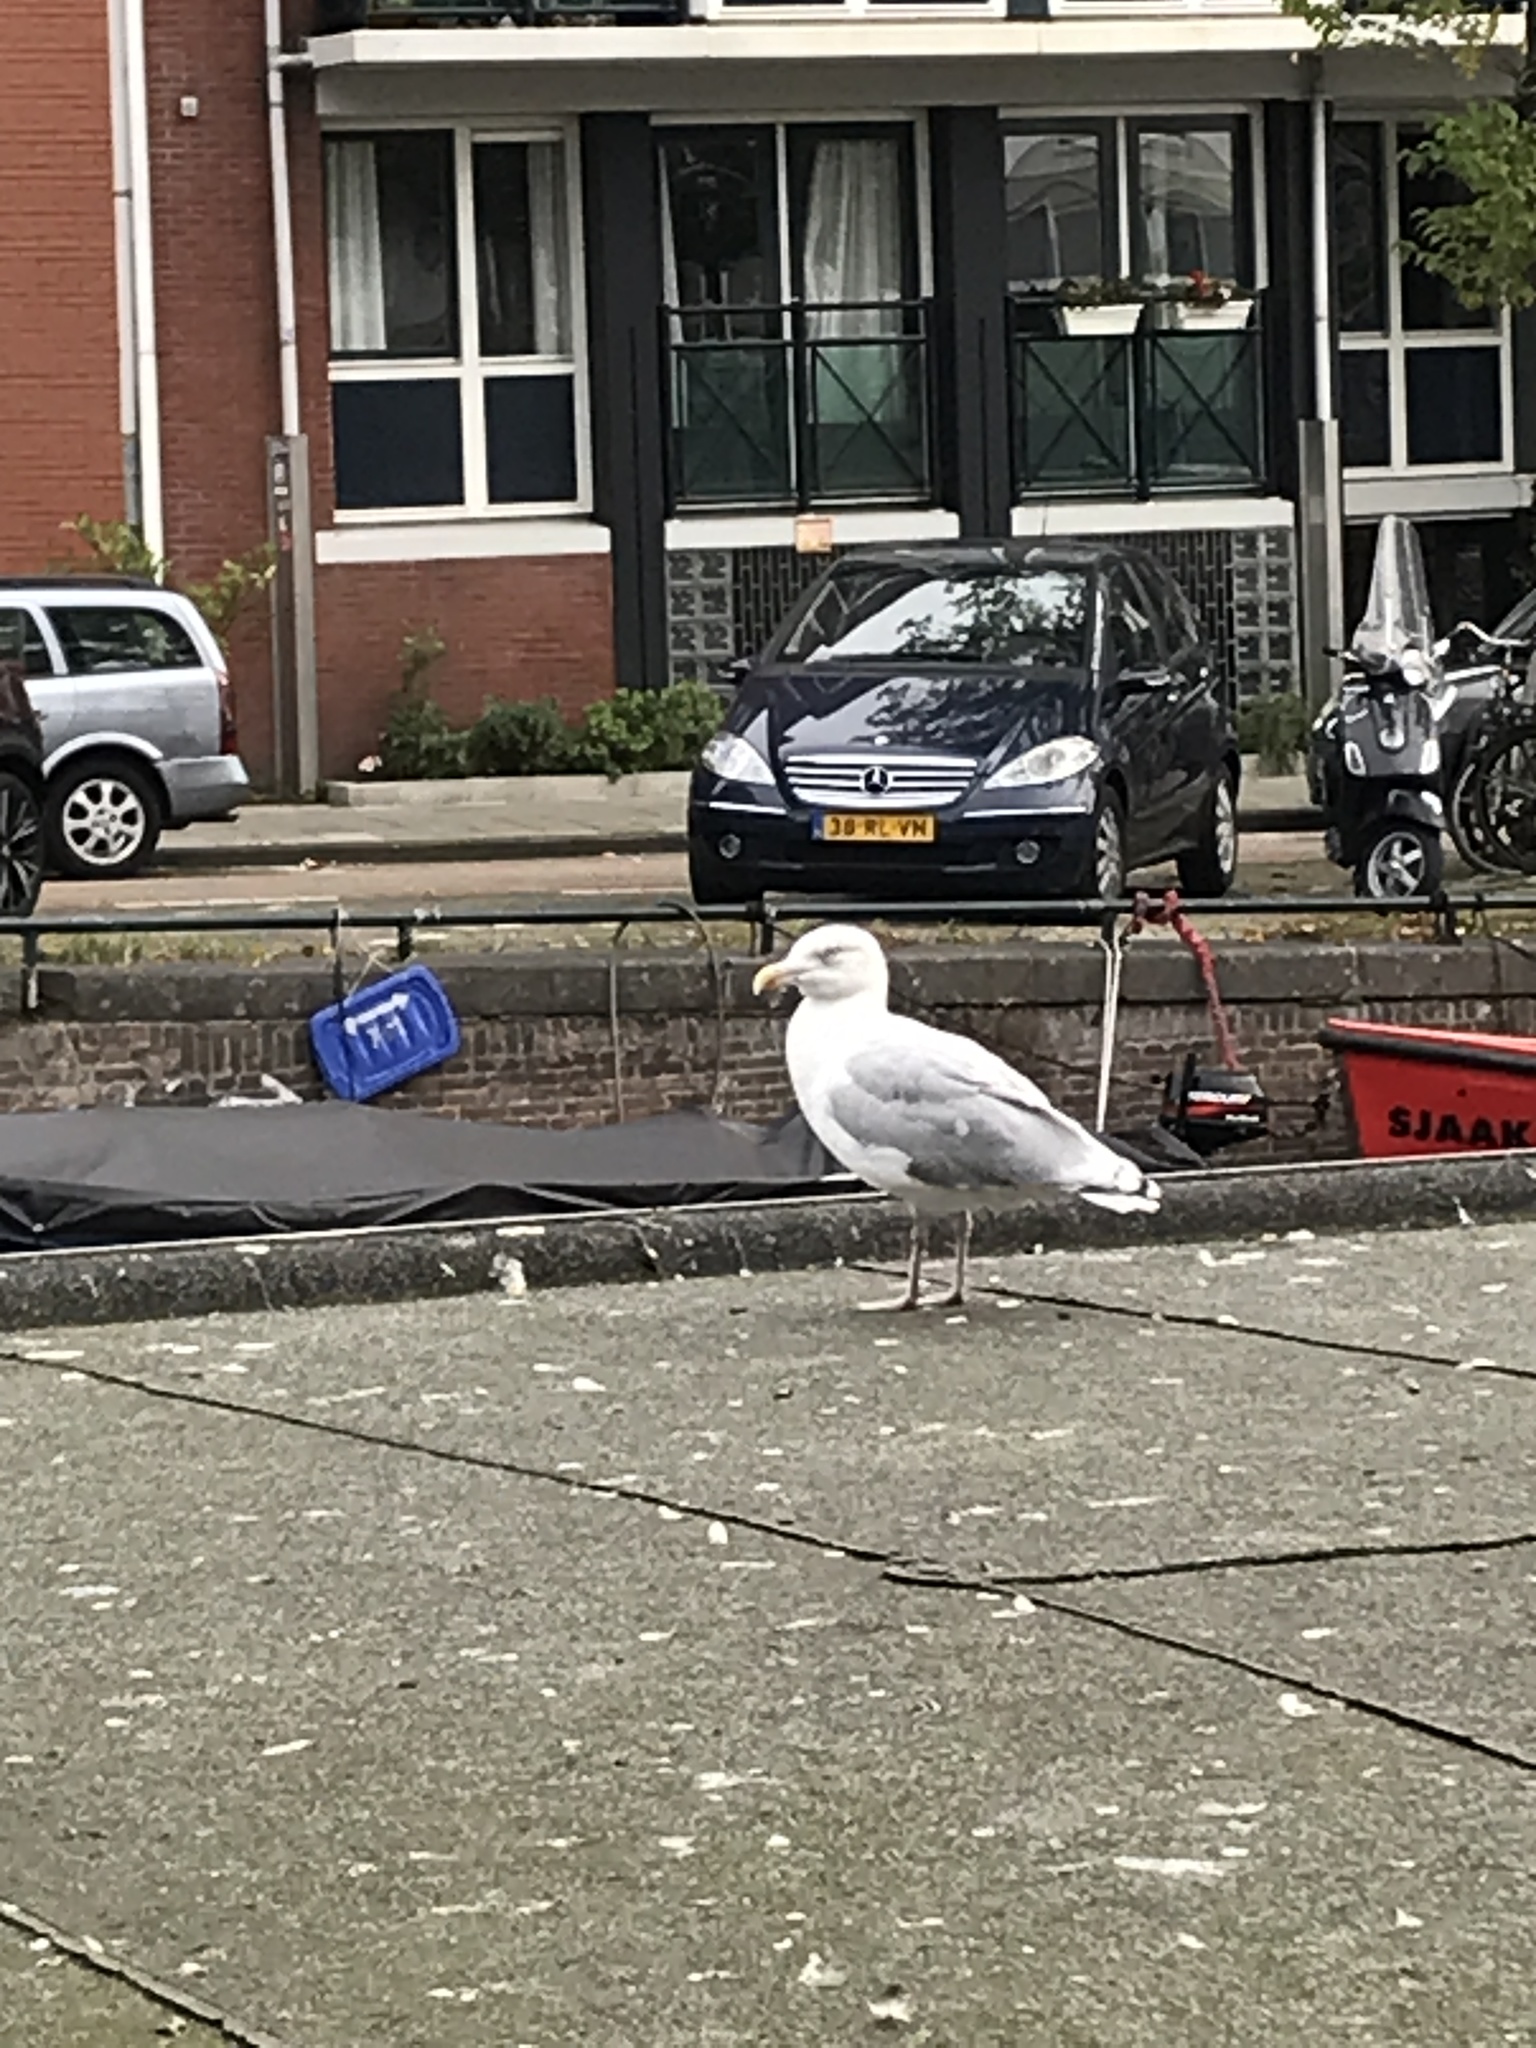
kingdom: Animalia
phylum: Chordata
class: Aves
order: Charadriiformes
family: Laridae
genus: Larus
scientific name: Larus argentatus
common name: Herring gull
